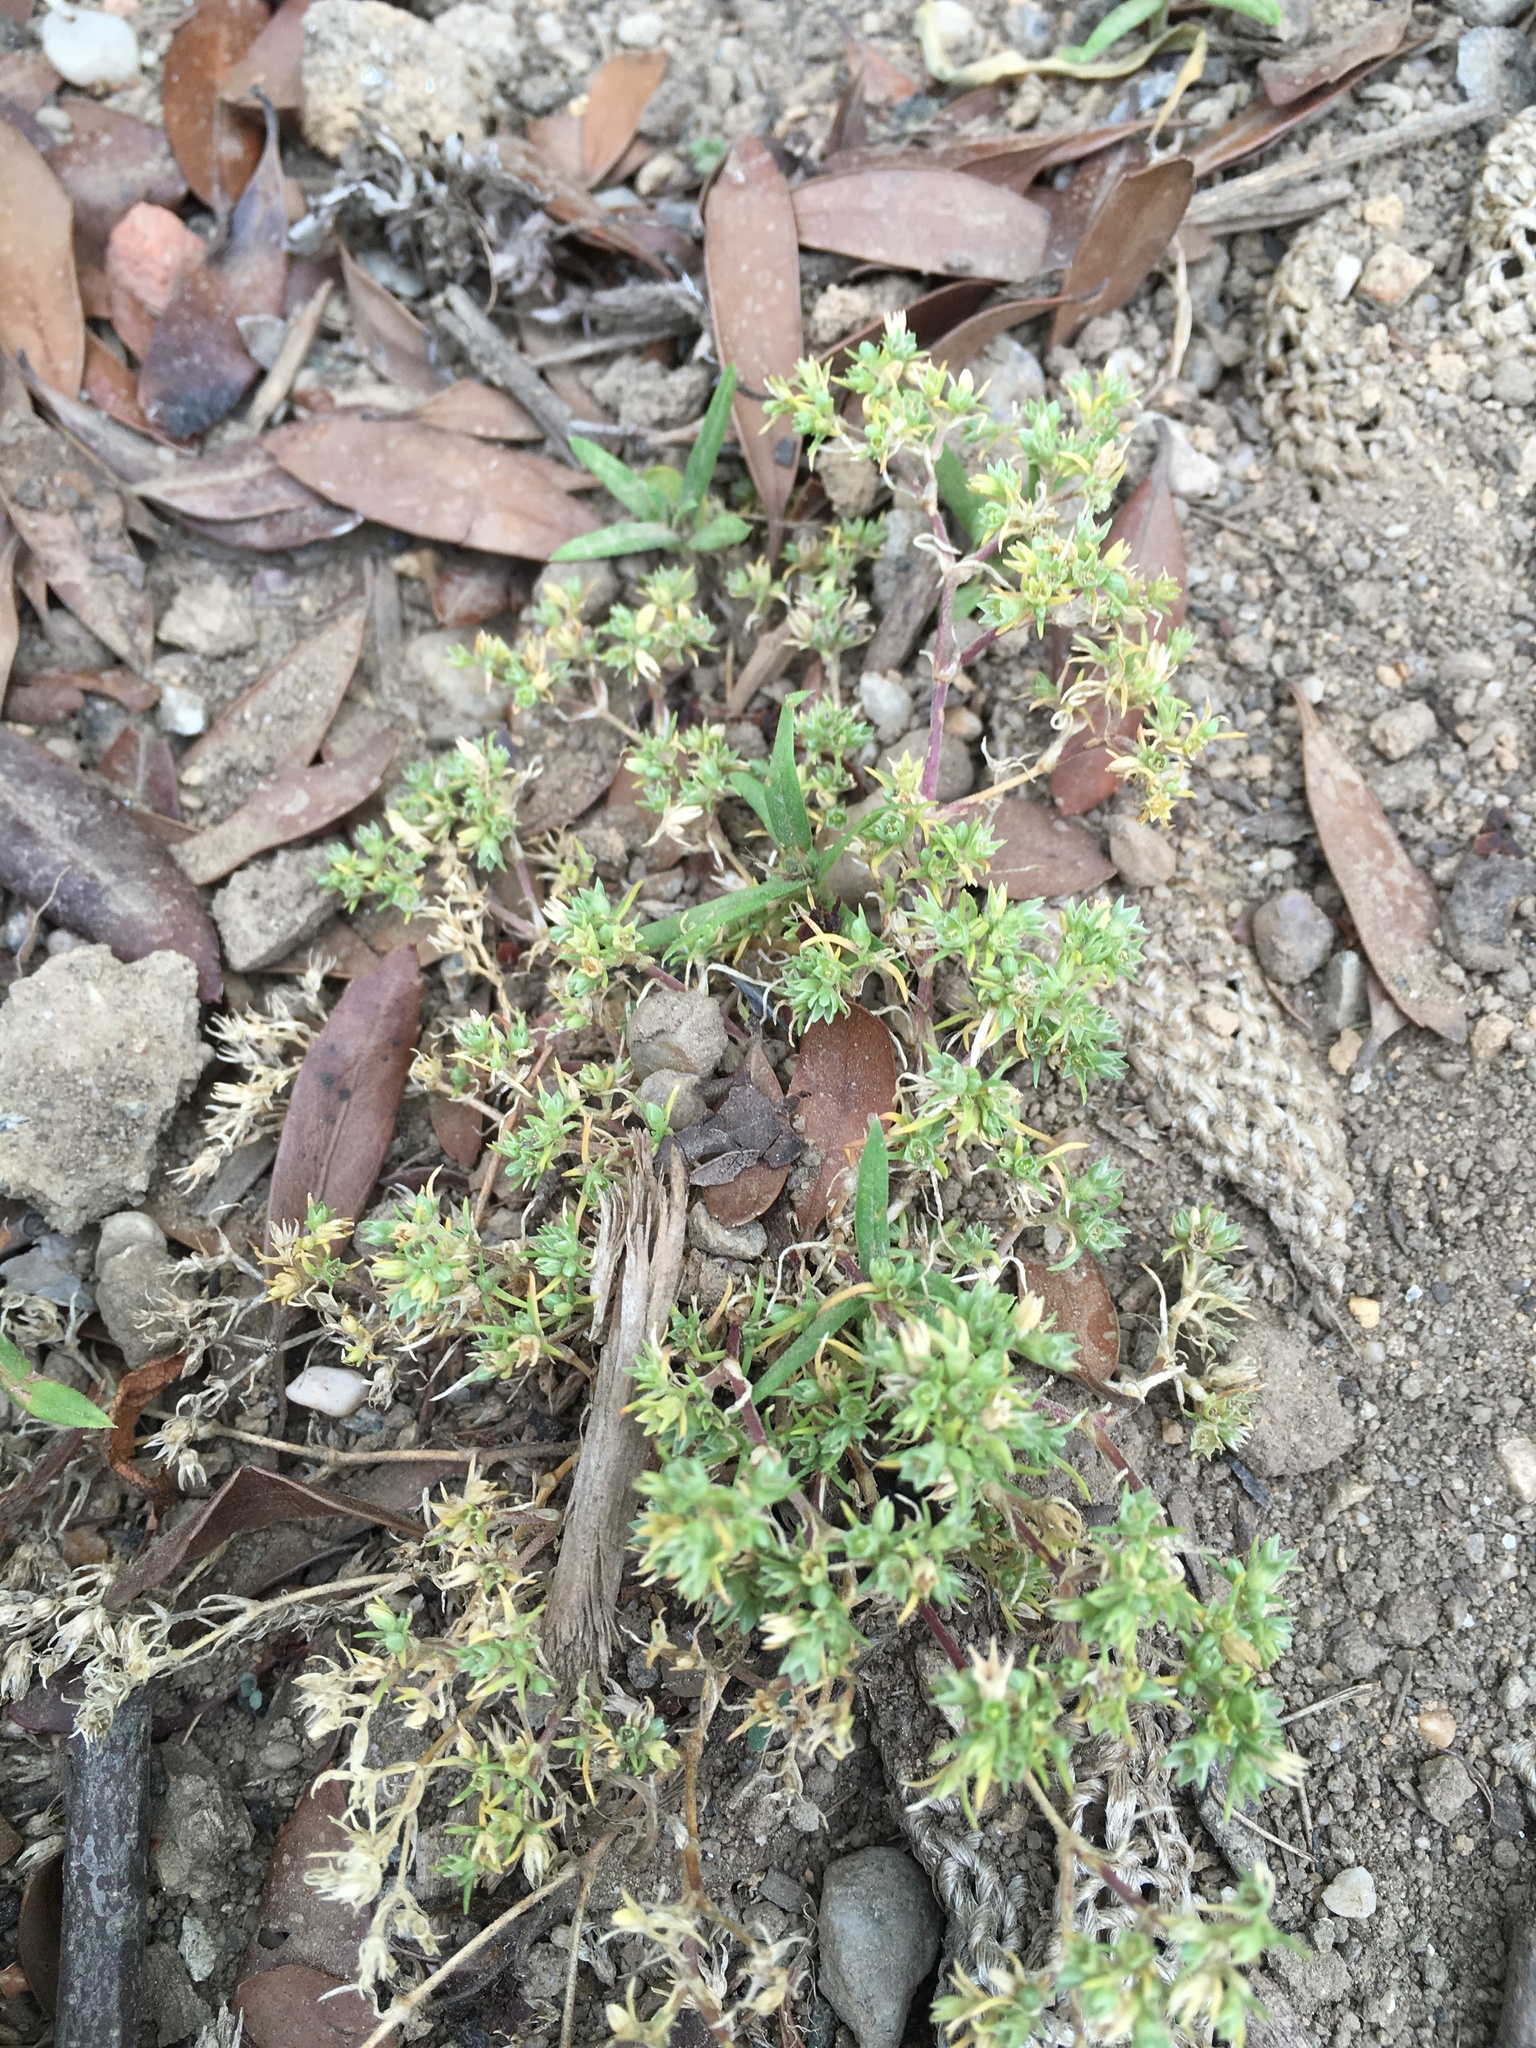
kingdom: Plantae
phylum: Tracheophyta
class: Magnoliopsida
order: Caryophyllales
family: Caryophyllaceae
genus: Scleranthus
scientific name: Scleranthus annuus
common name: Annual knawel
